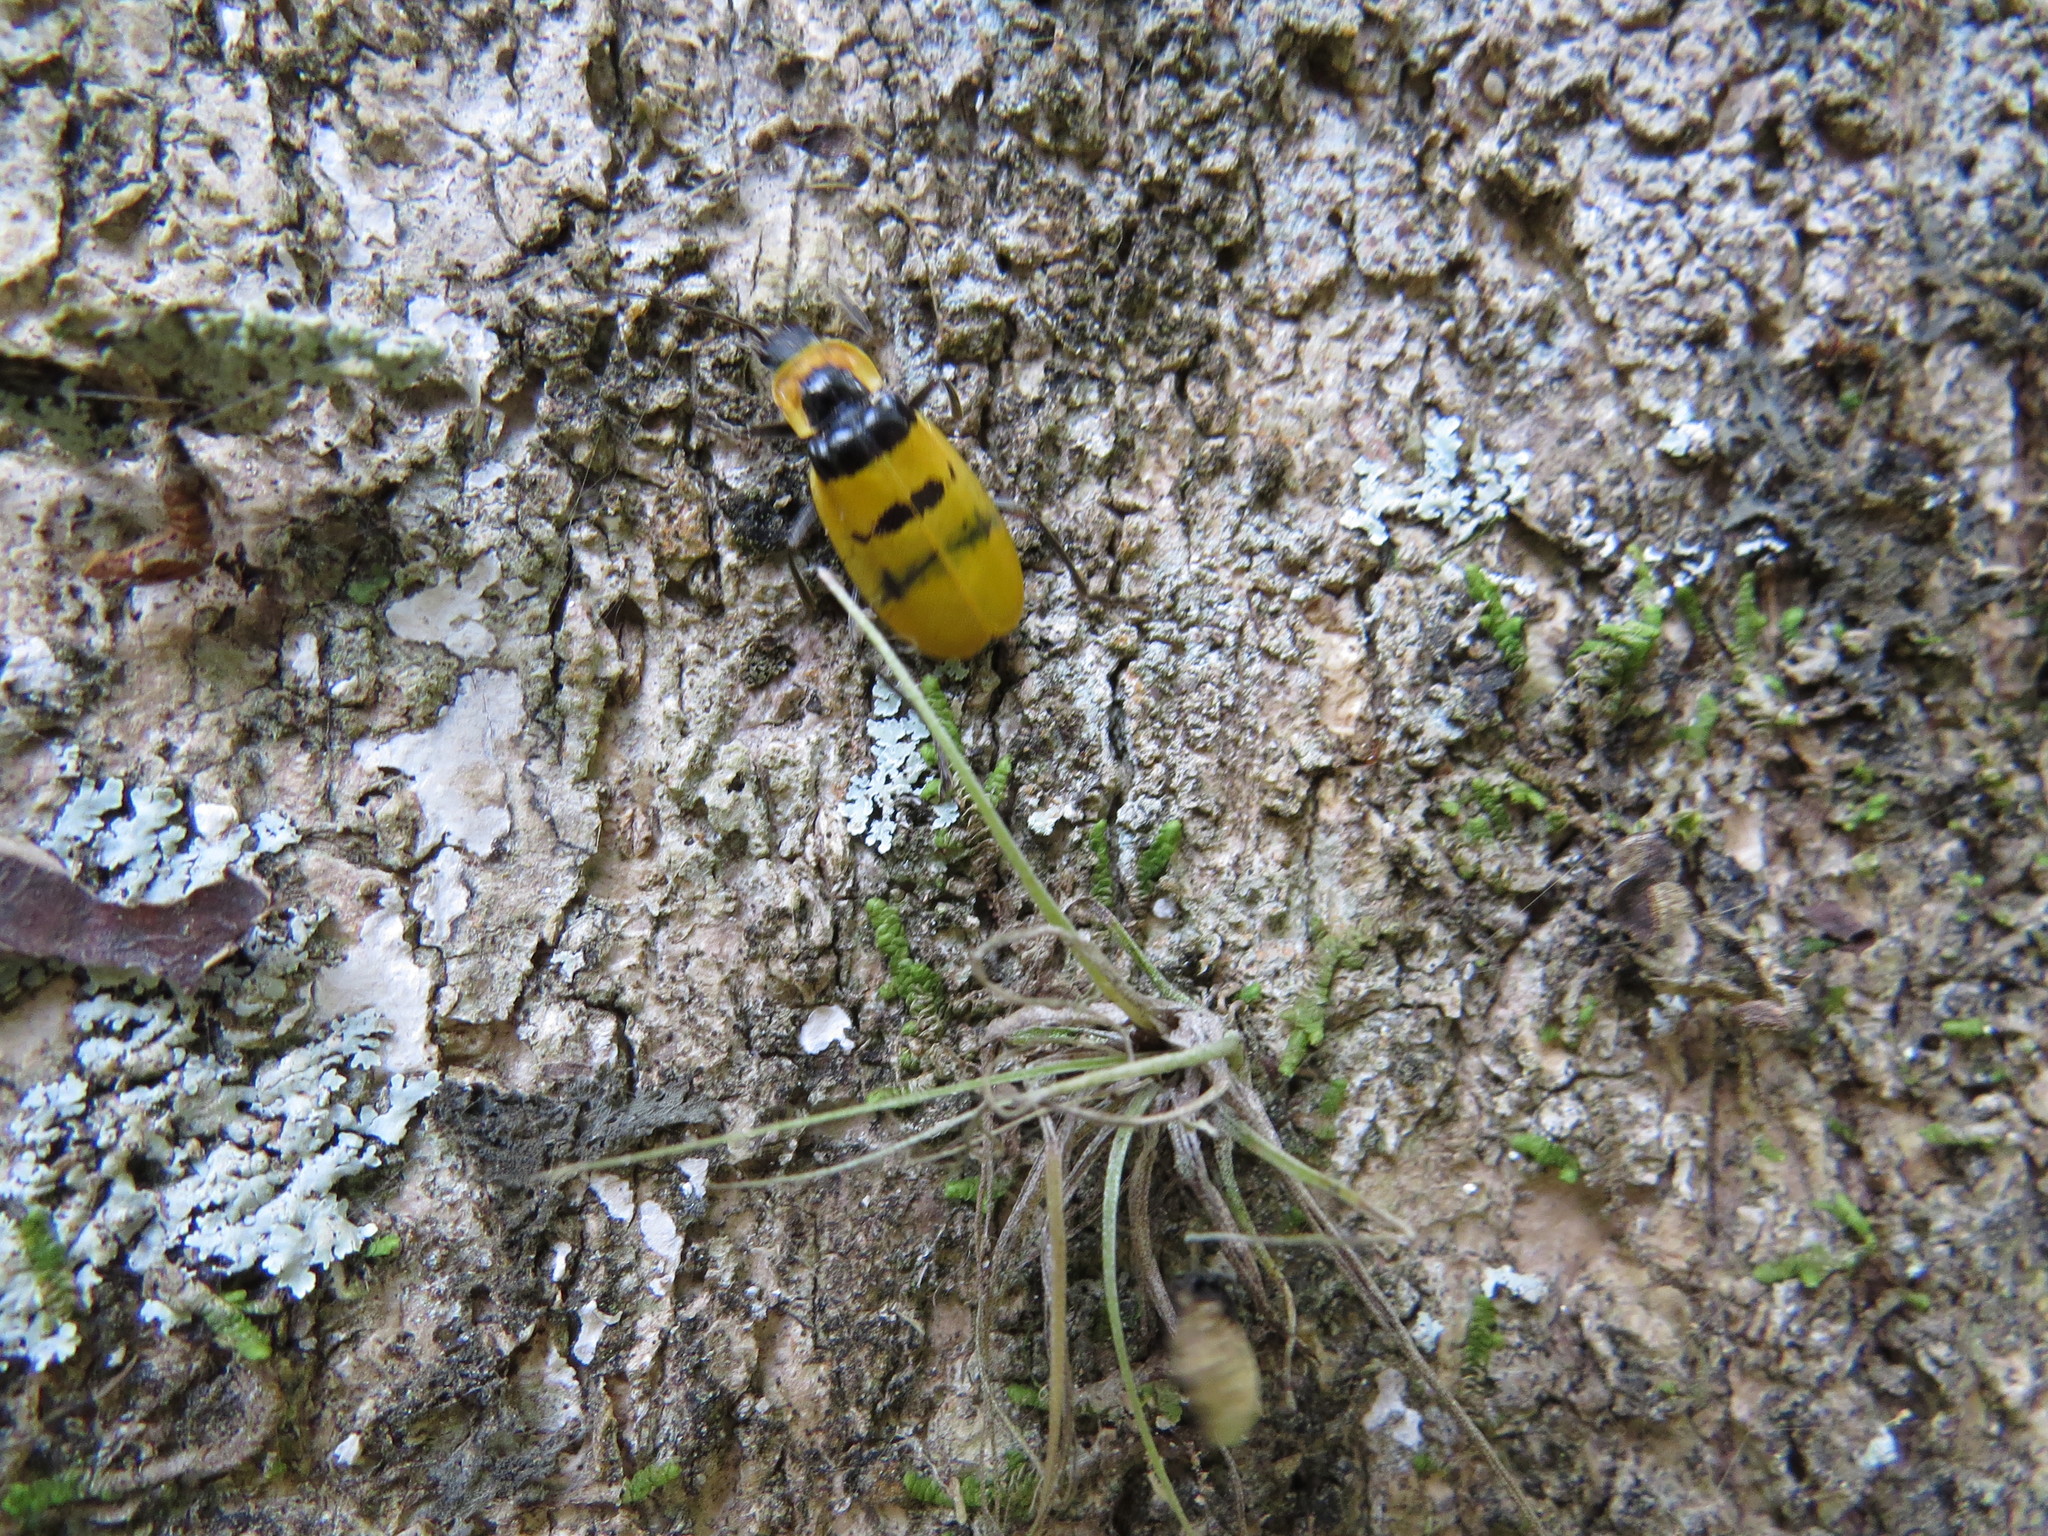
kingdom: Animalia
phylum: Arthropoda
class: Insecta
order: Coleoptera
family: Cantharidae
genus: Chauliognathus
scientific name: Chauliognathus
